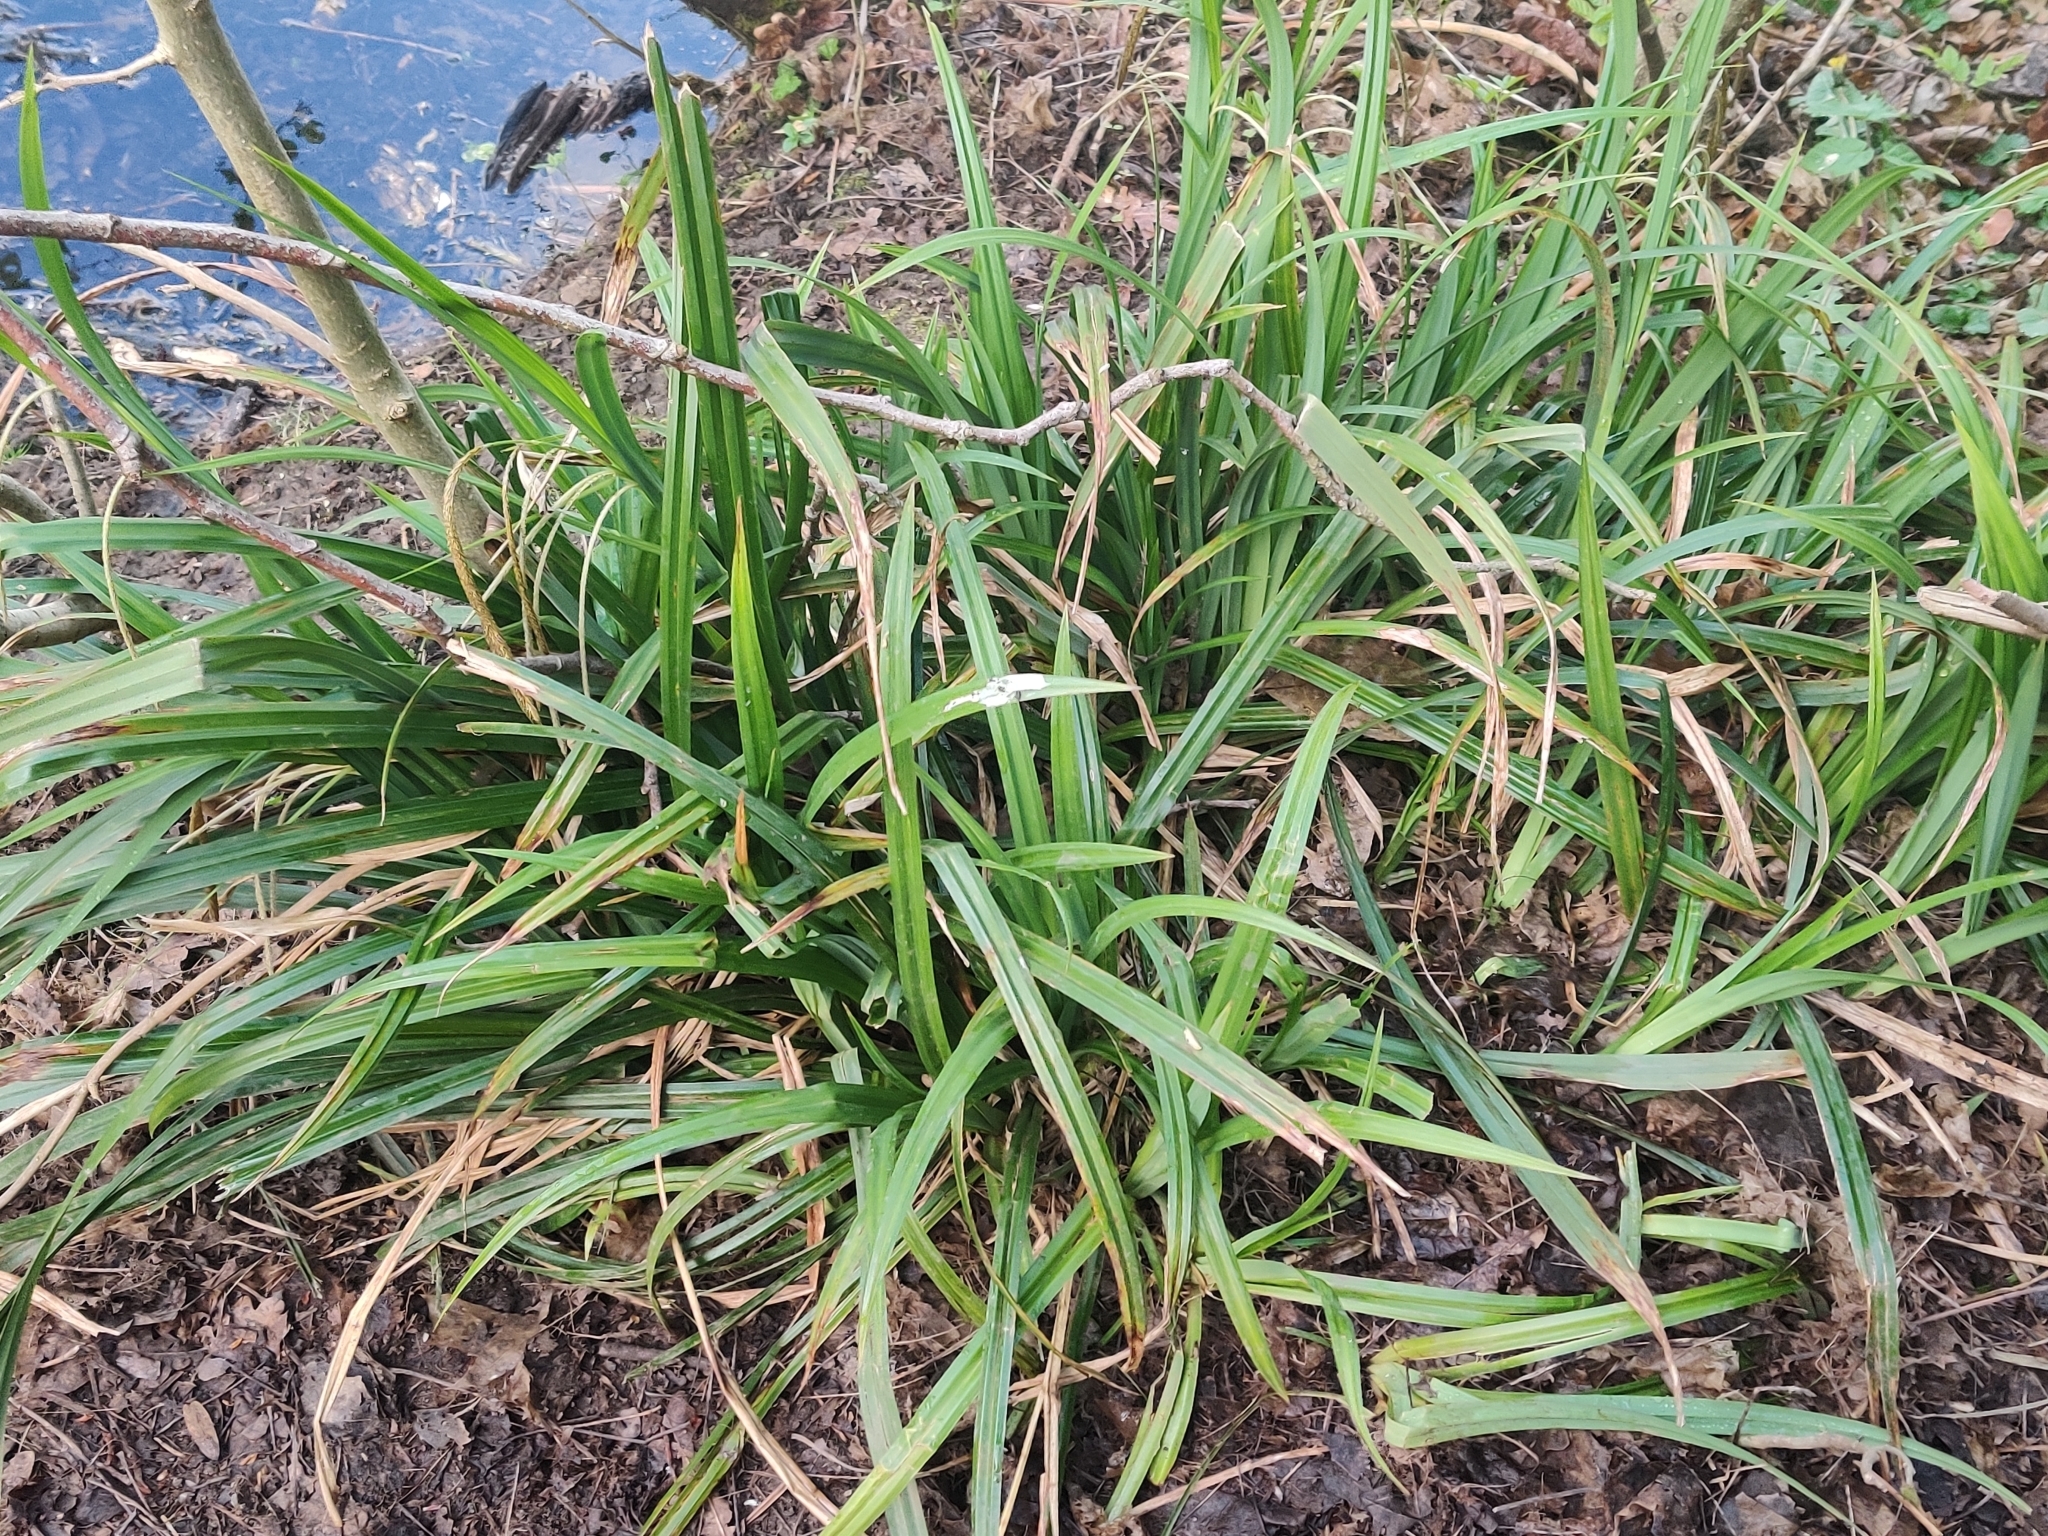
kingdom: Plantae
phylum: Tracheophyta
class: Liliopsida
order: Poales
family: Cyperaceae
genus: Carex
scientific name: Carex pendula
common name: Pendulous sedge
